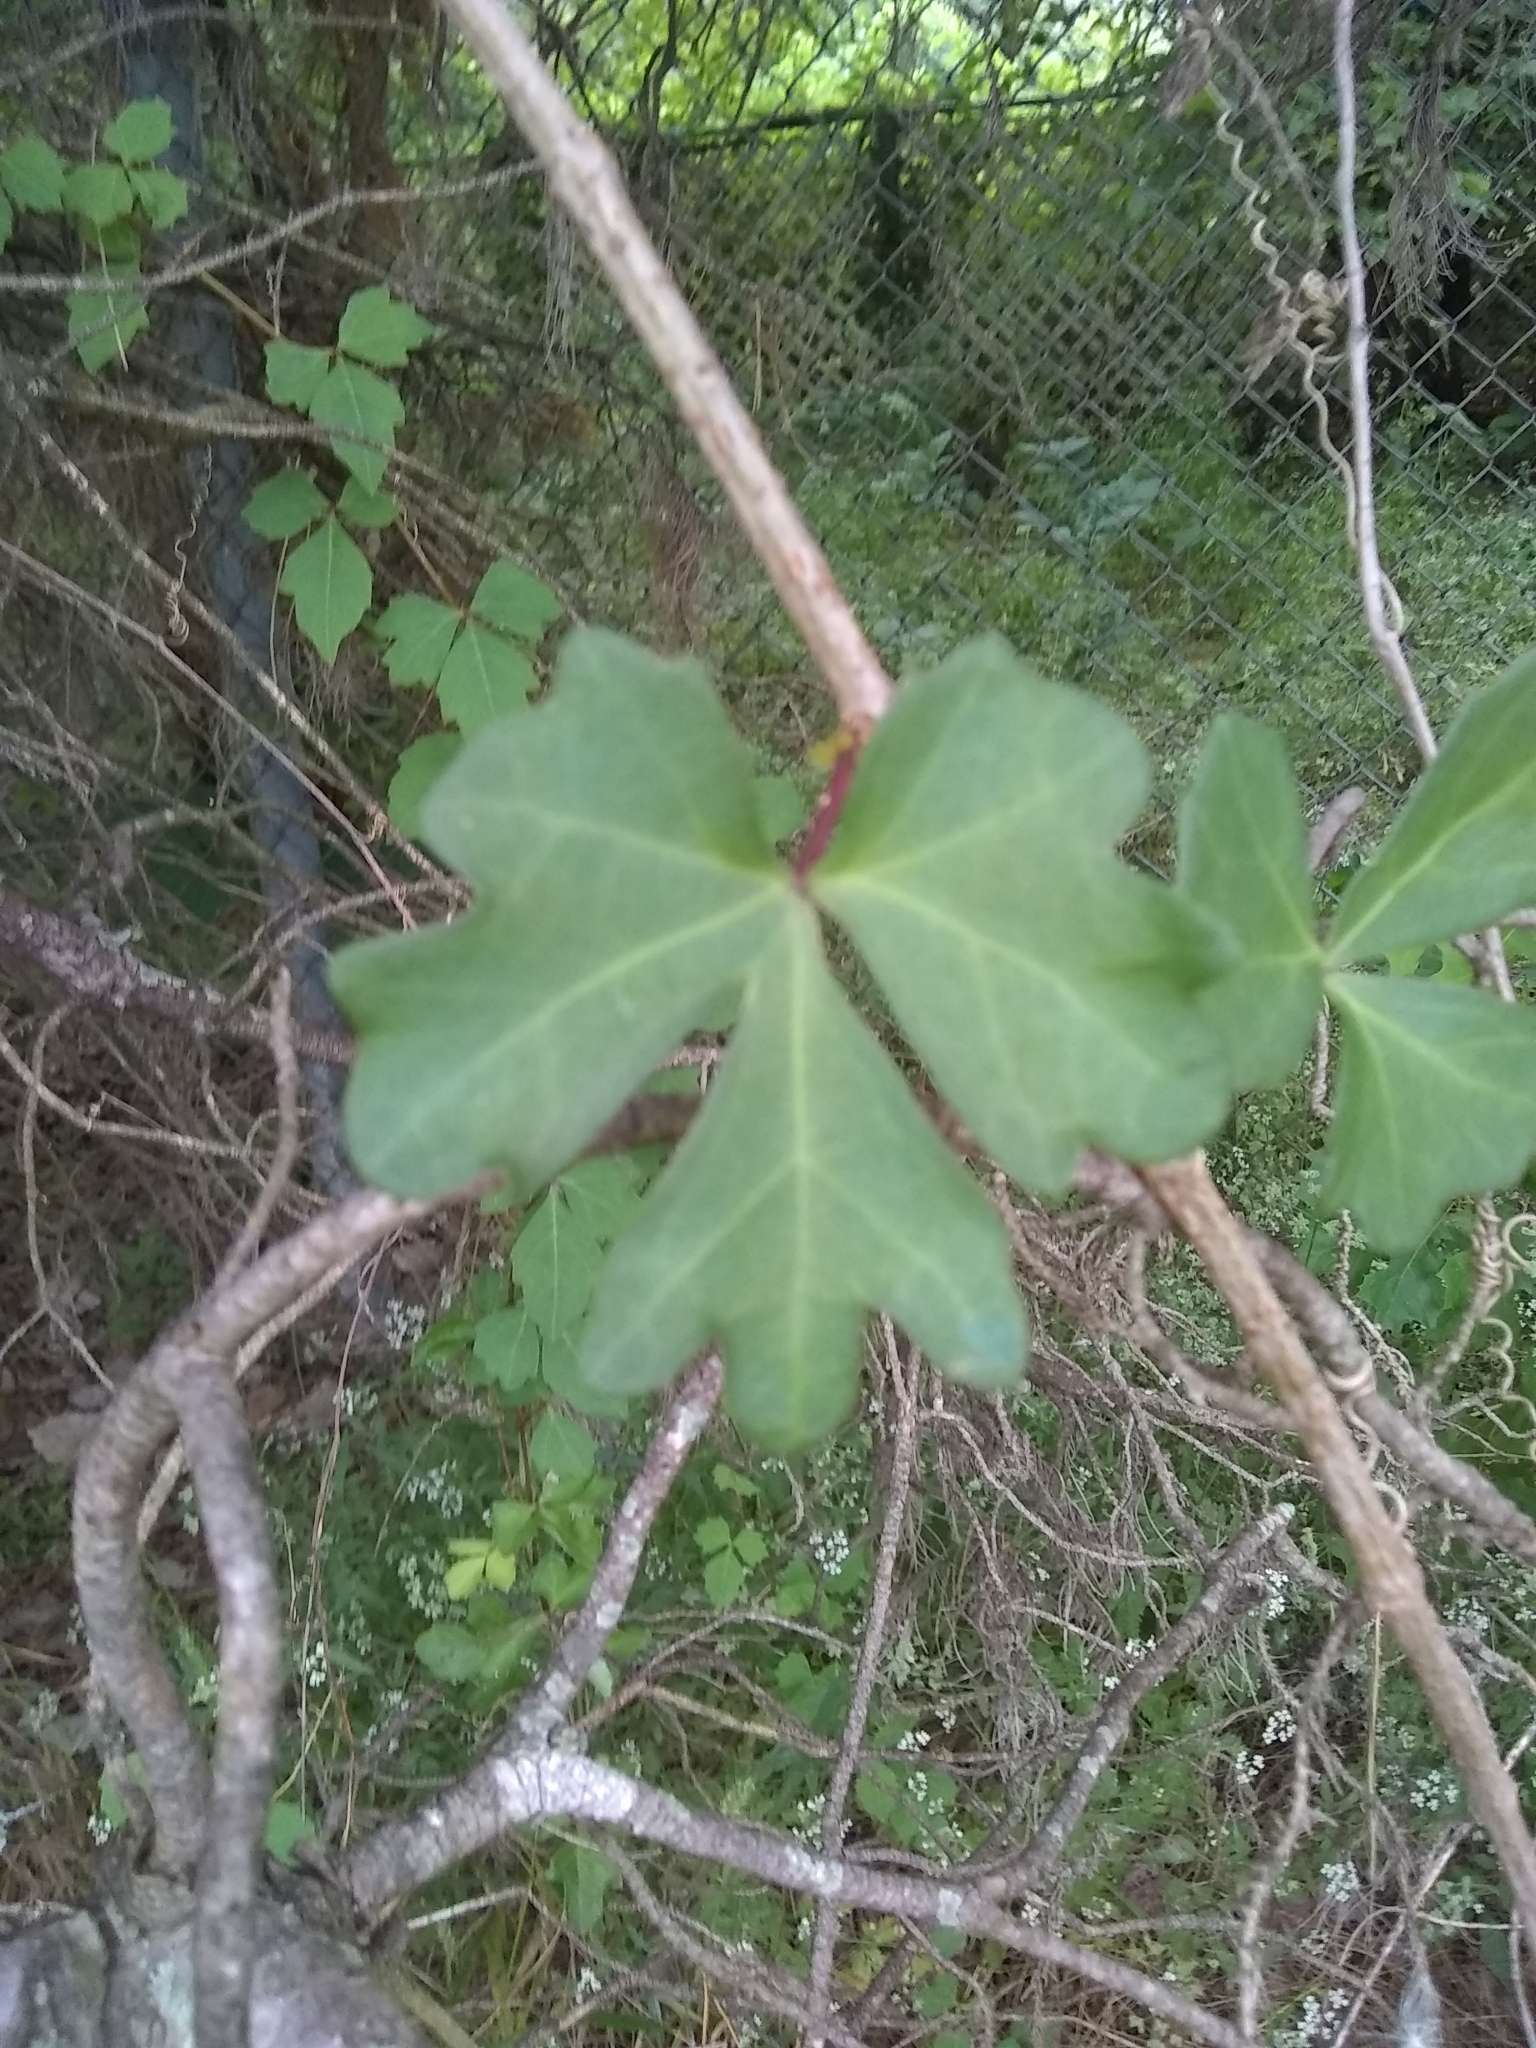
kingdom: Plantae
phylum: Tracheophyta
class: Magnoliopsida
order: Vitales
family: Vitaceae
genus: Cissus
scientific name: Cissus trifoliata
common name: Vine-sorrel
